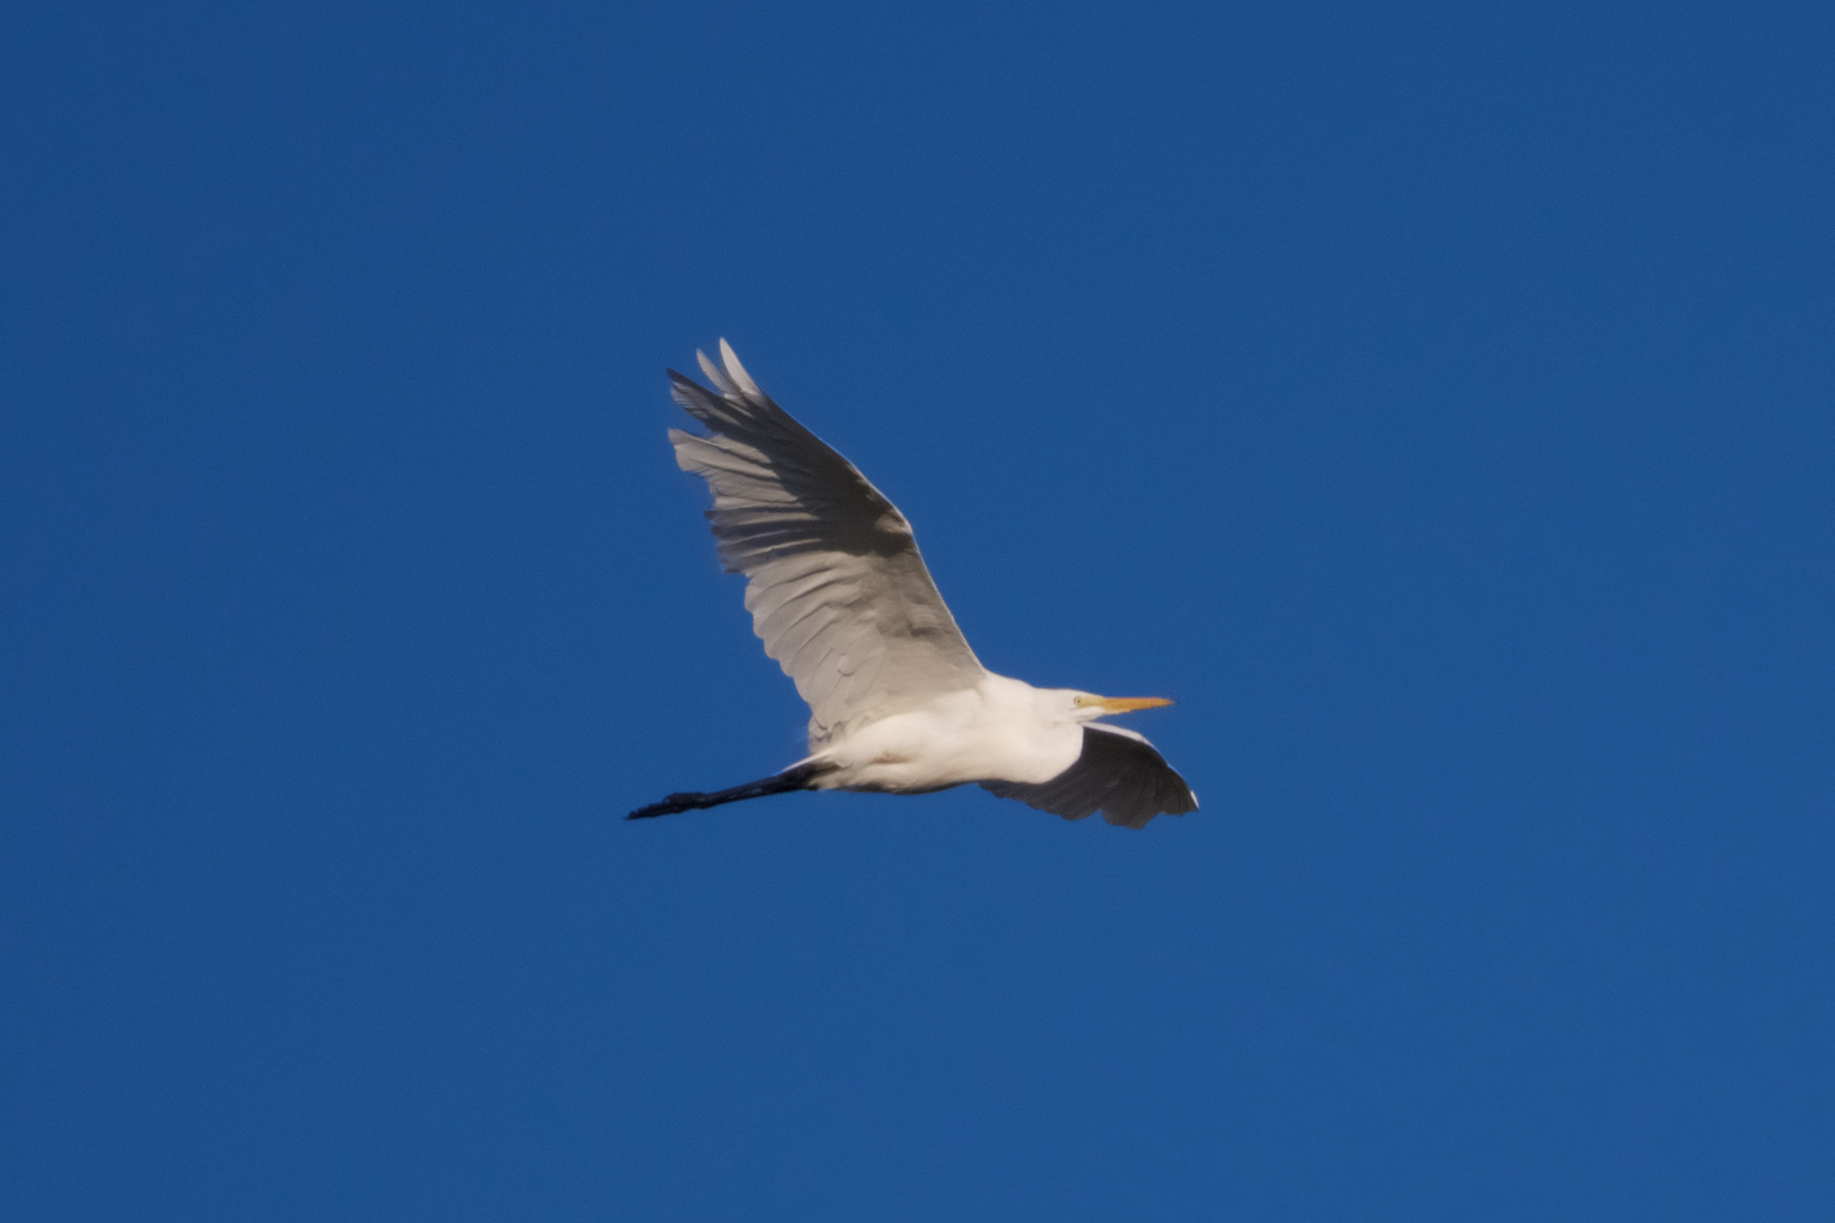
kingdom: Animalia
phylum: Chordata
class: Aves
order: Pelecaniformes
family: Ardeidae
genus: Ardea
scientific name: Ardea alba
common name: Great egret
